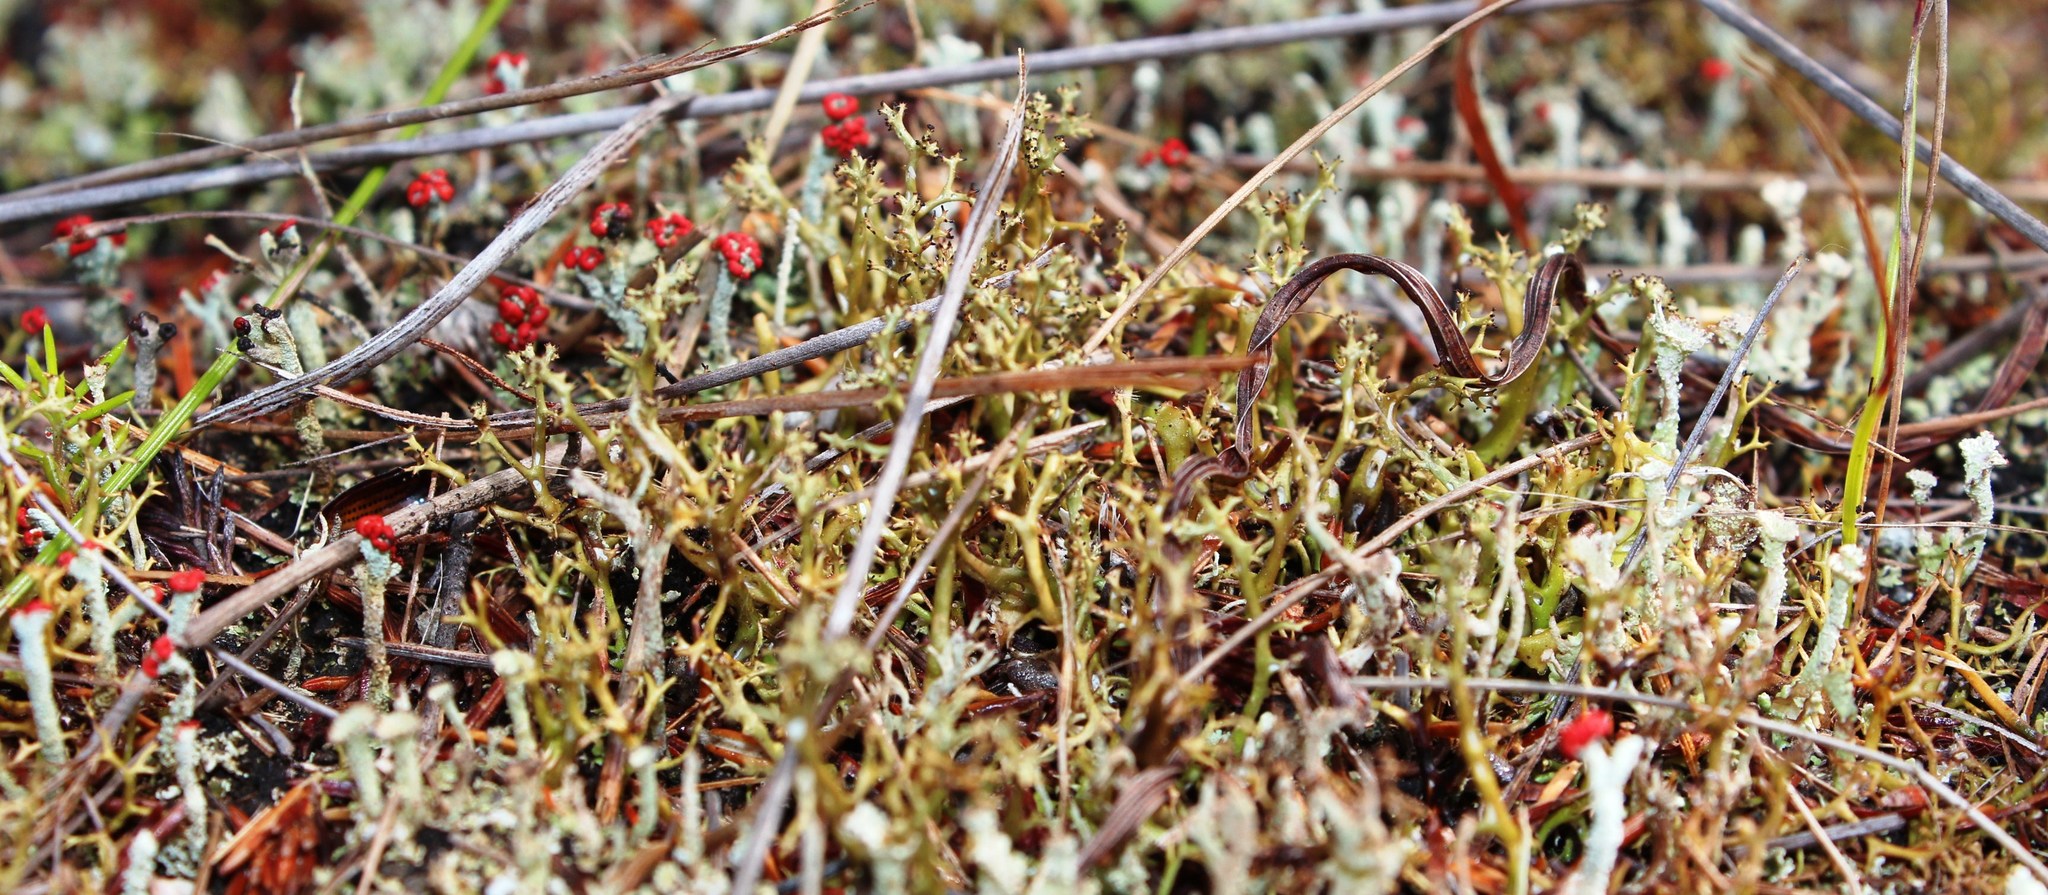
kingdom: Fungi
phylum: Ascomycota
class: Lecanoromycetes
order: Lecanorales
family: Cladoniaceae
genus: Cladia
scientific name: Cladia aggregata
